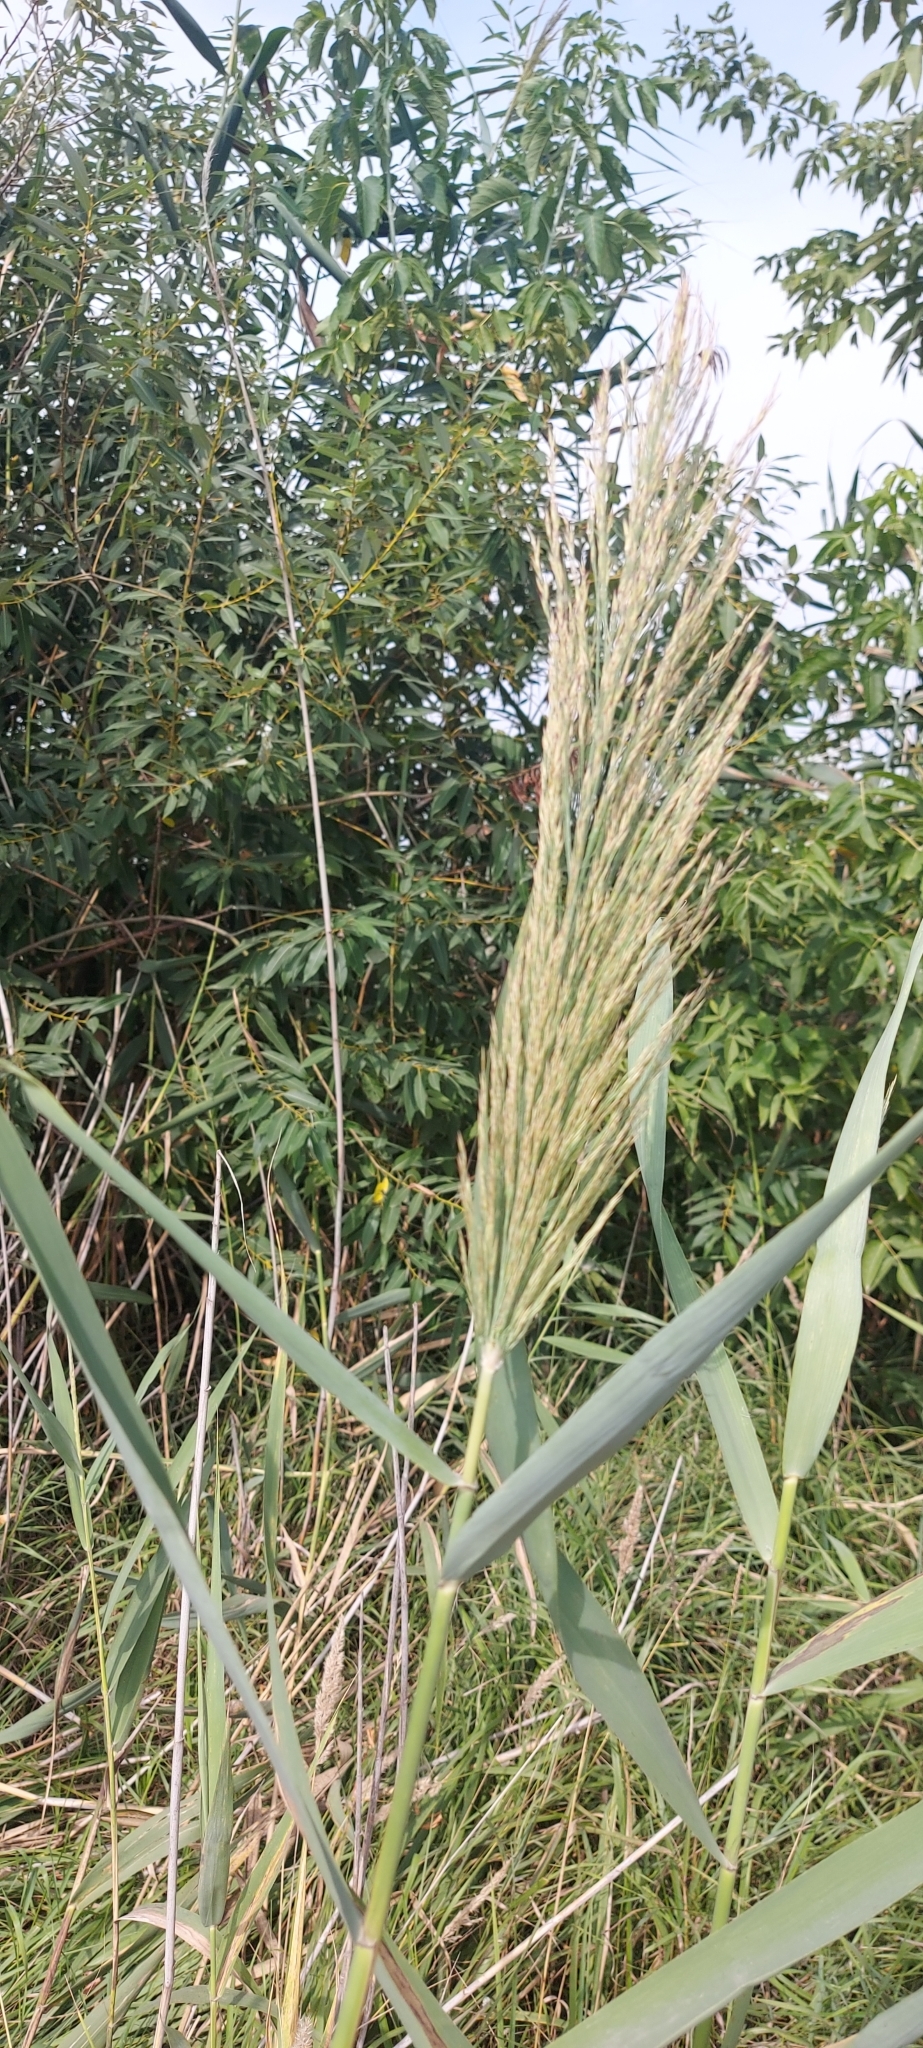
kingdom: Plantae
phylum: Tracheophyta
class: Liliopsida
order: Poales
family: Poaceae
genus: Phragmites
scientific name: Phragmites australis
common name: Common reed
